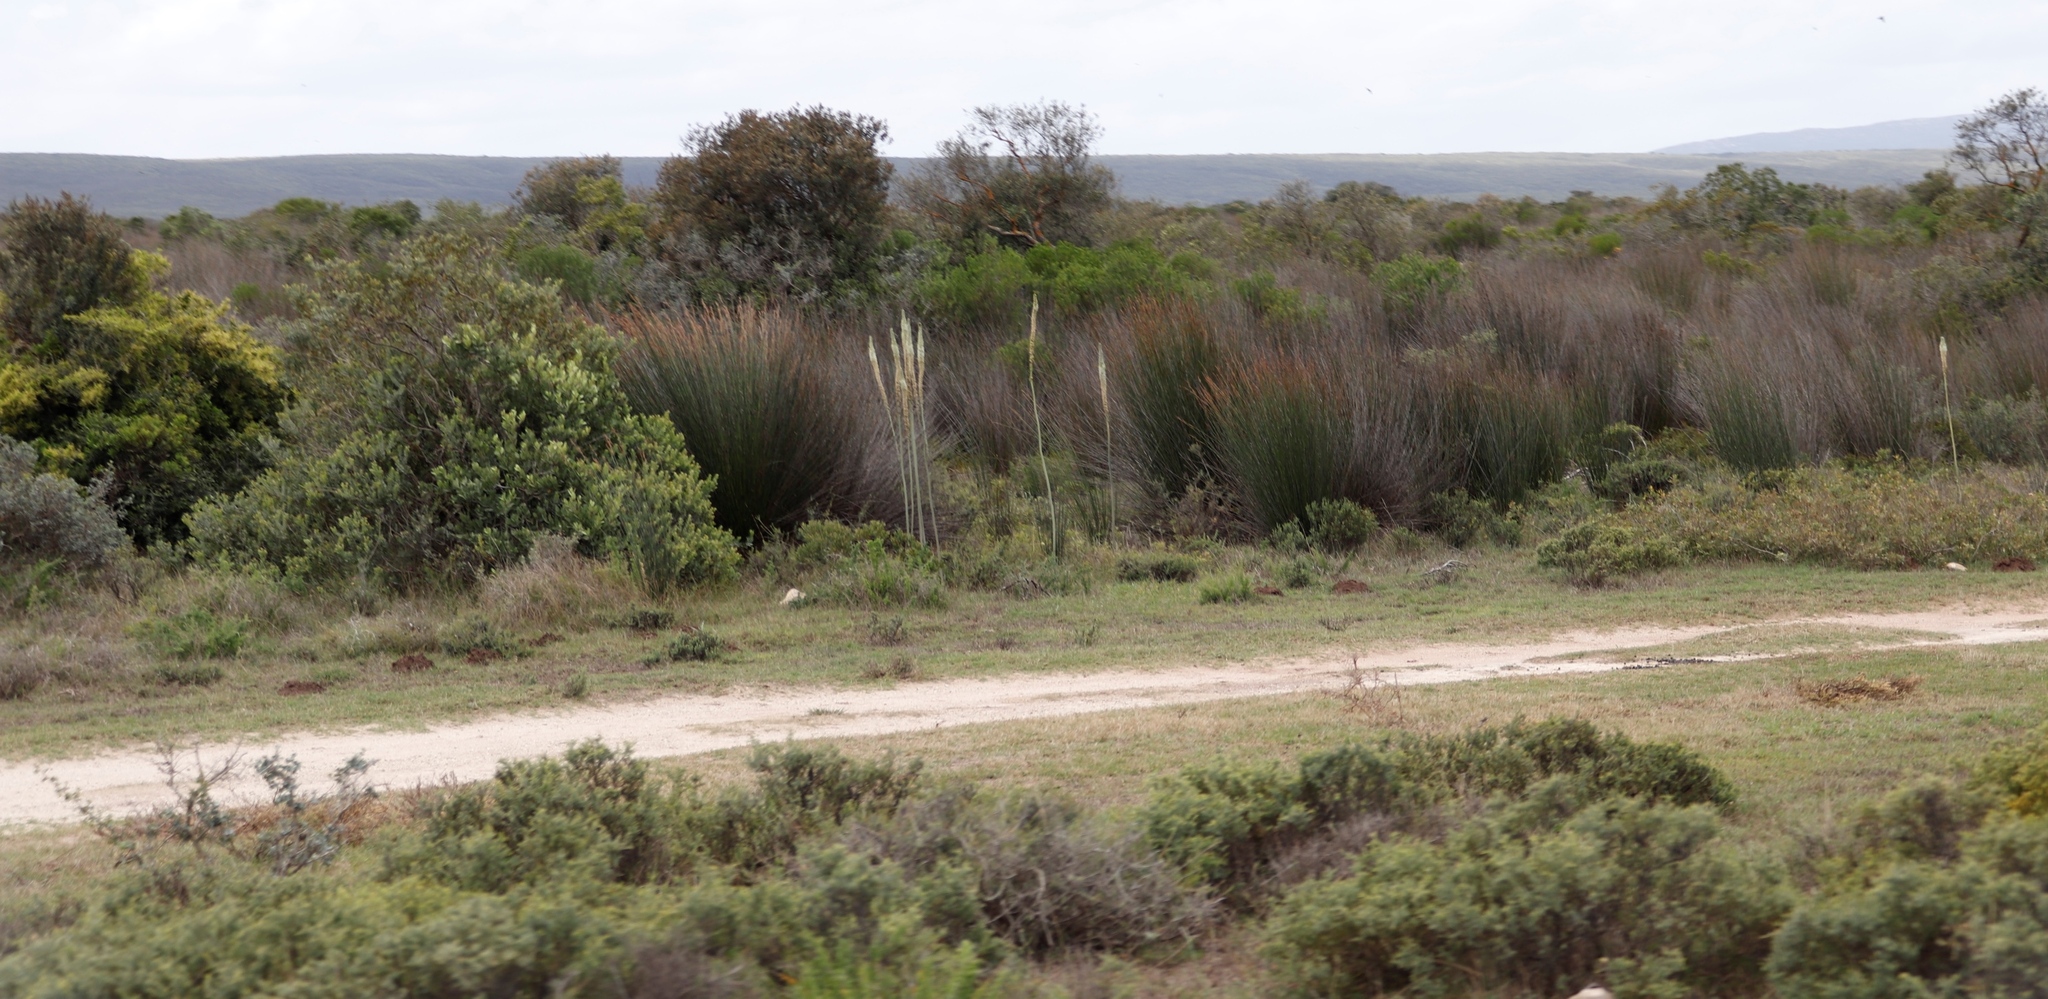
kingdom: Plantae
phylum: Tracheophyta
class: Liliopsida
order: Asparagales
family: Asparagaceae
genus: Drimia
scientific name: Drimia capensis
